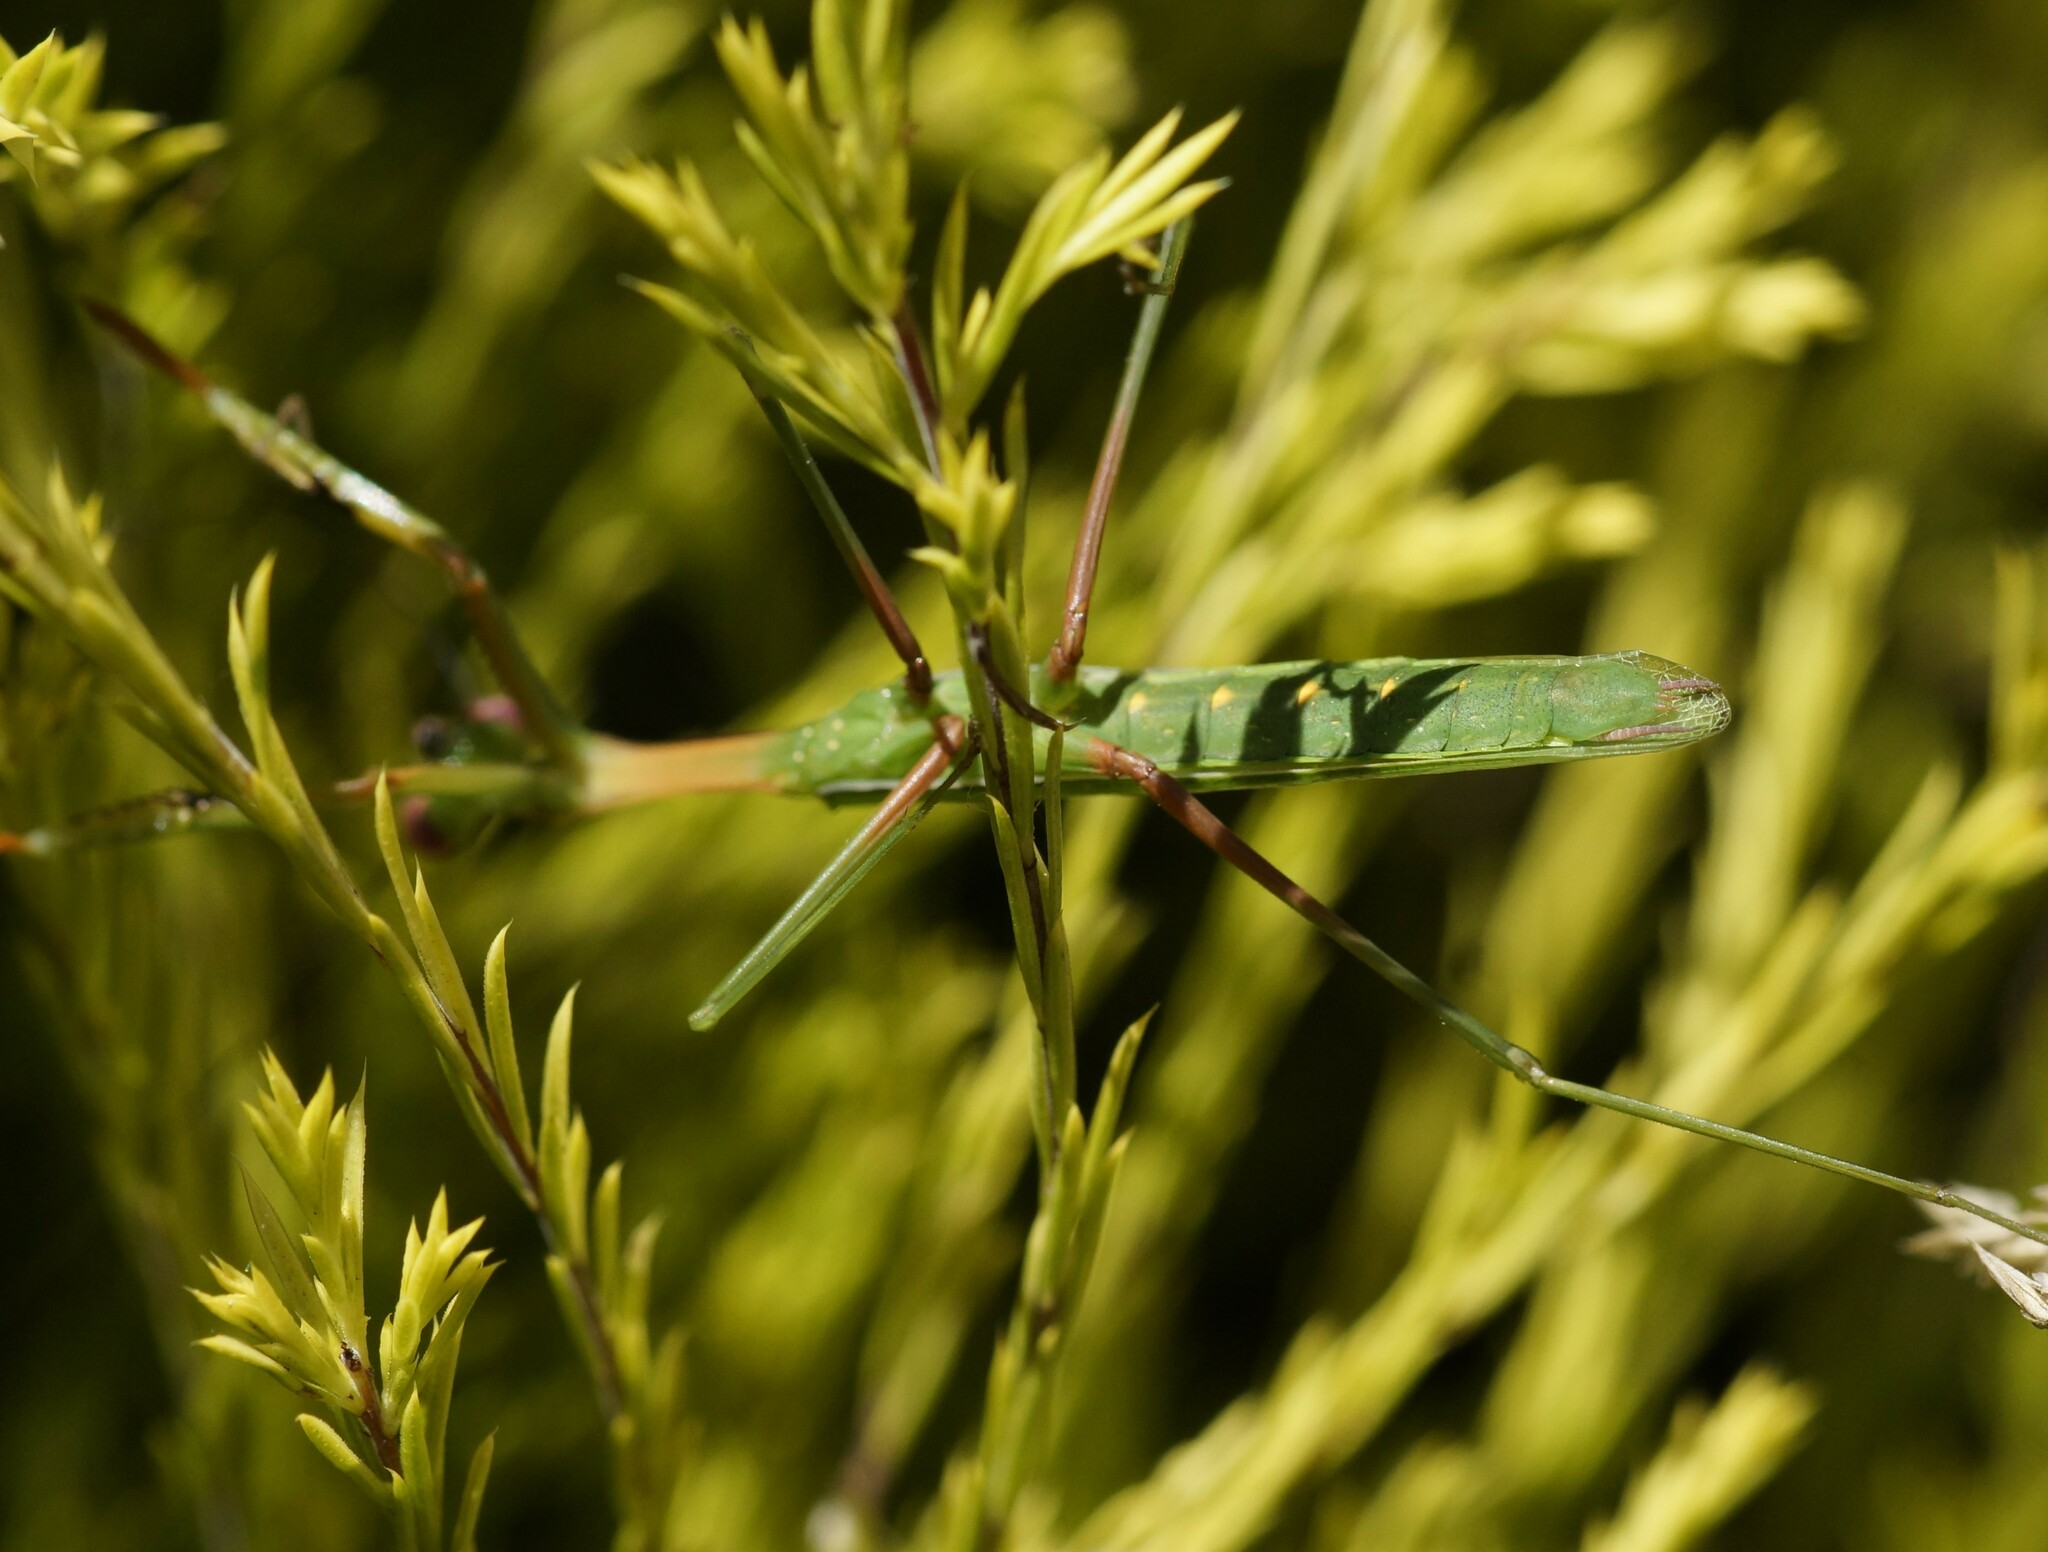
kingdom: Animalia
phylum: Arthropoda
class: Insecta
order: Mantodea
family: Mantidae
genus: Pseudomantis
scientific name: Pseudomantis albofimbriata
